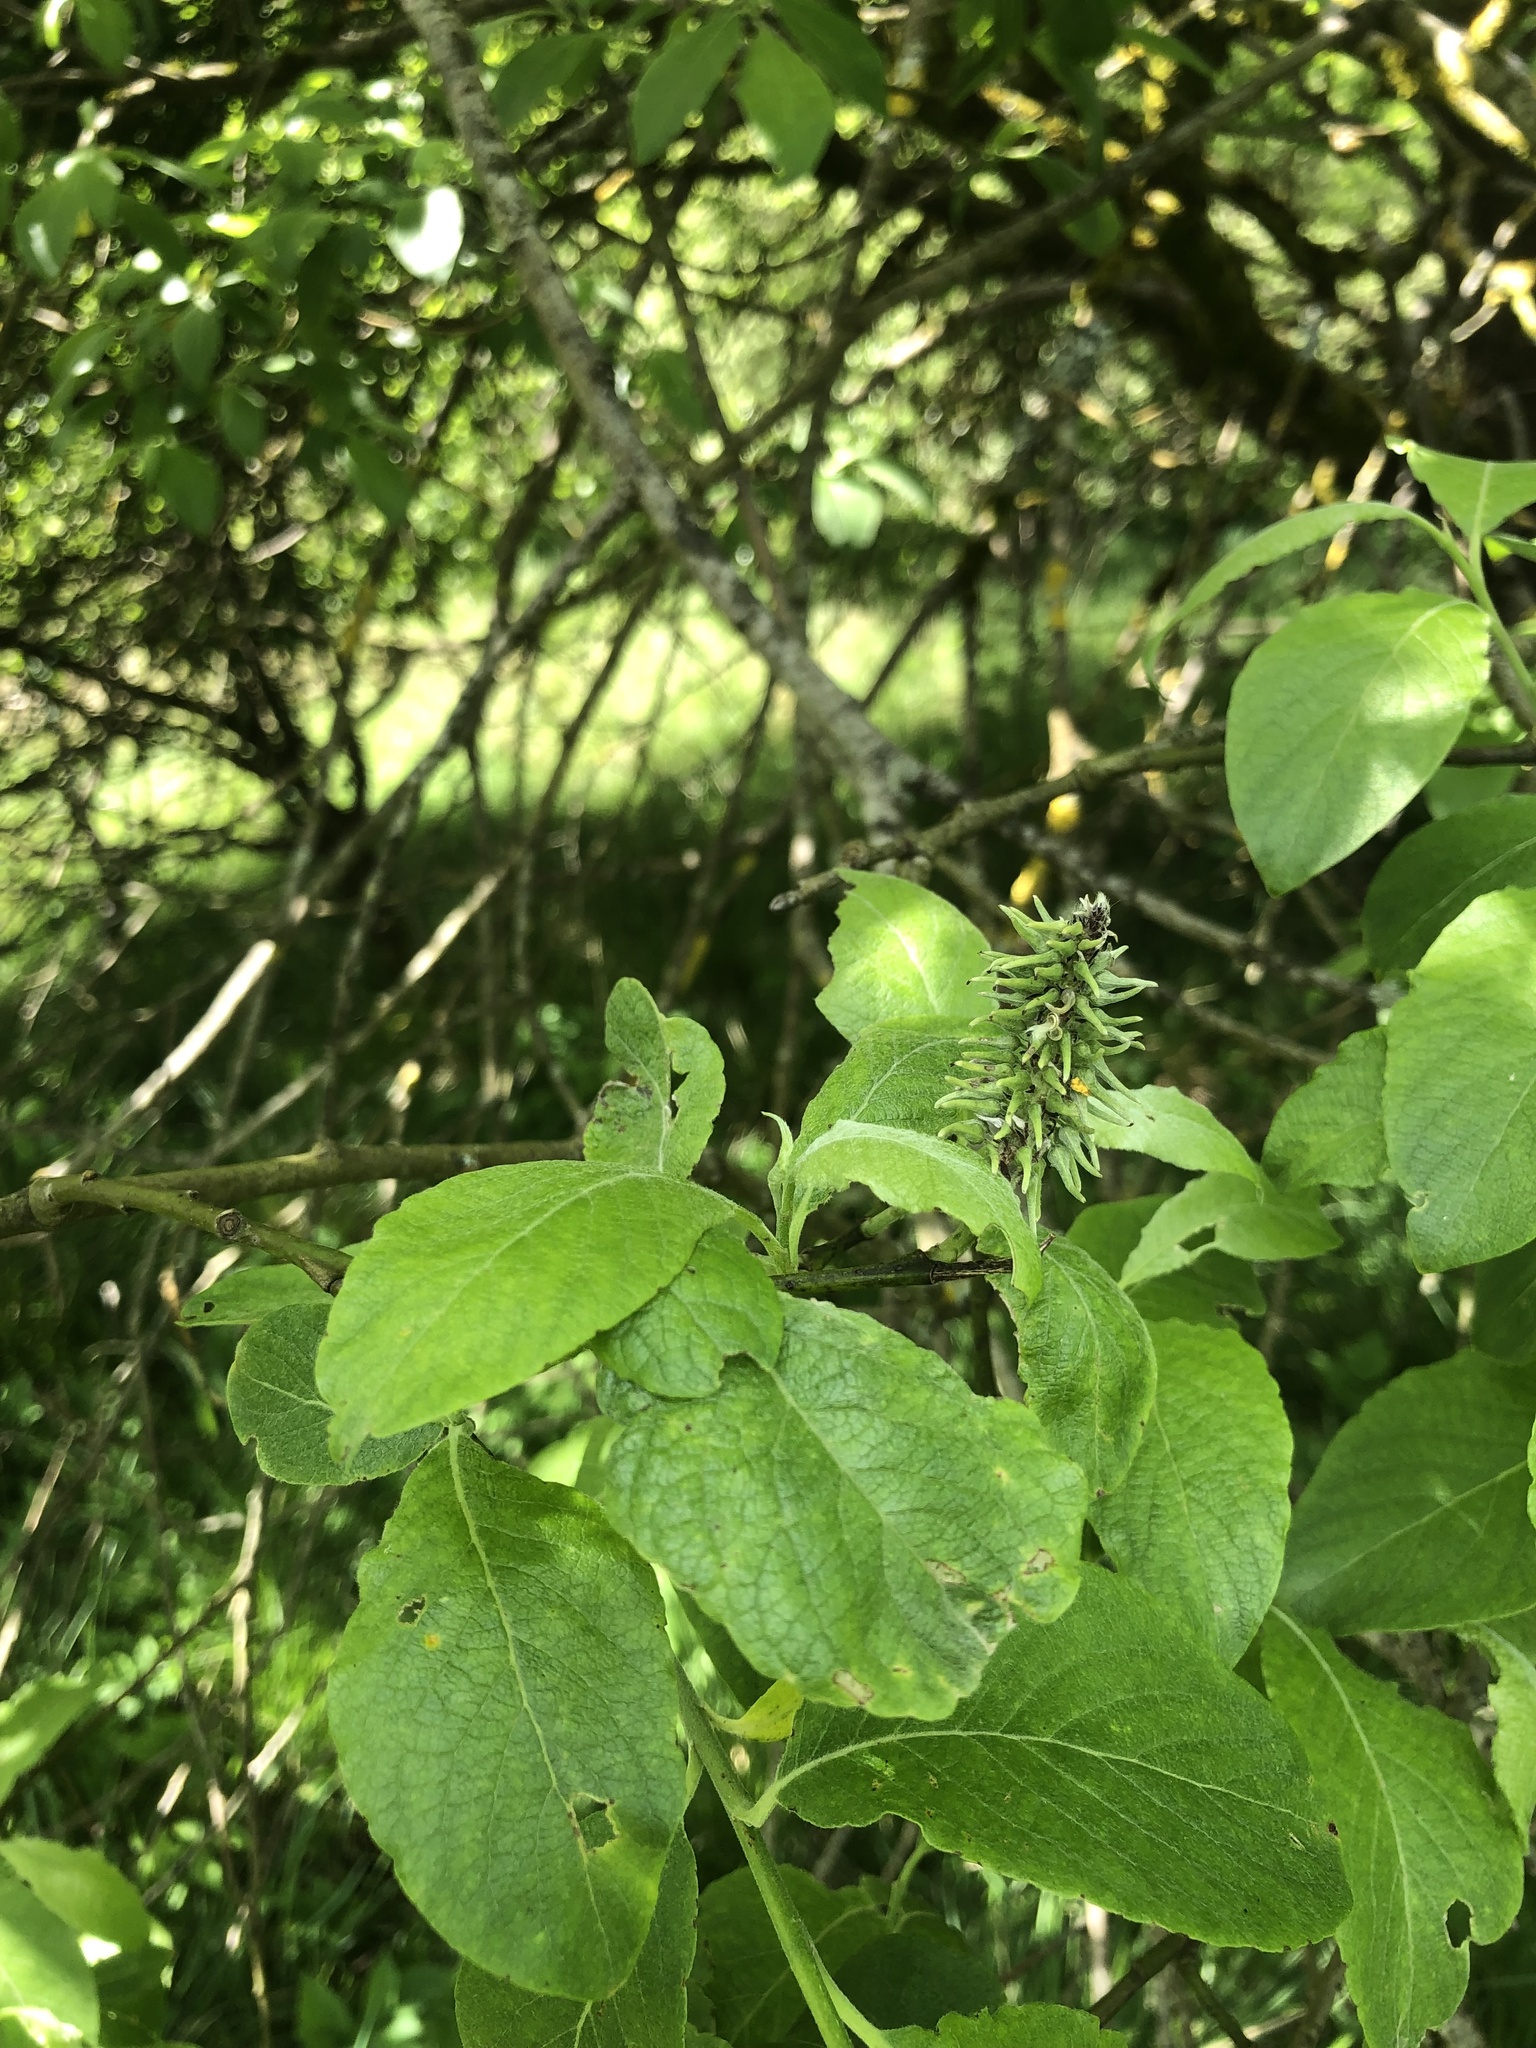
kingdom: Plantae
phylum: Tracheophyta
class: Magnoliopsida
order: Malpighiales
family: Salicaceae
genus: Salix
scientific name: Salix caprea
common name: Goat willow
